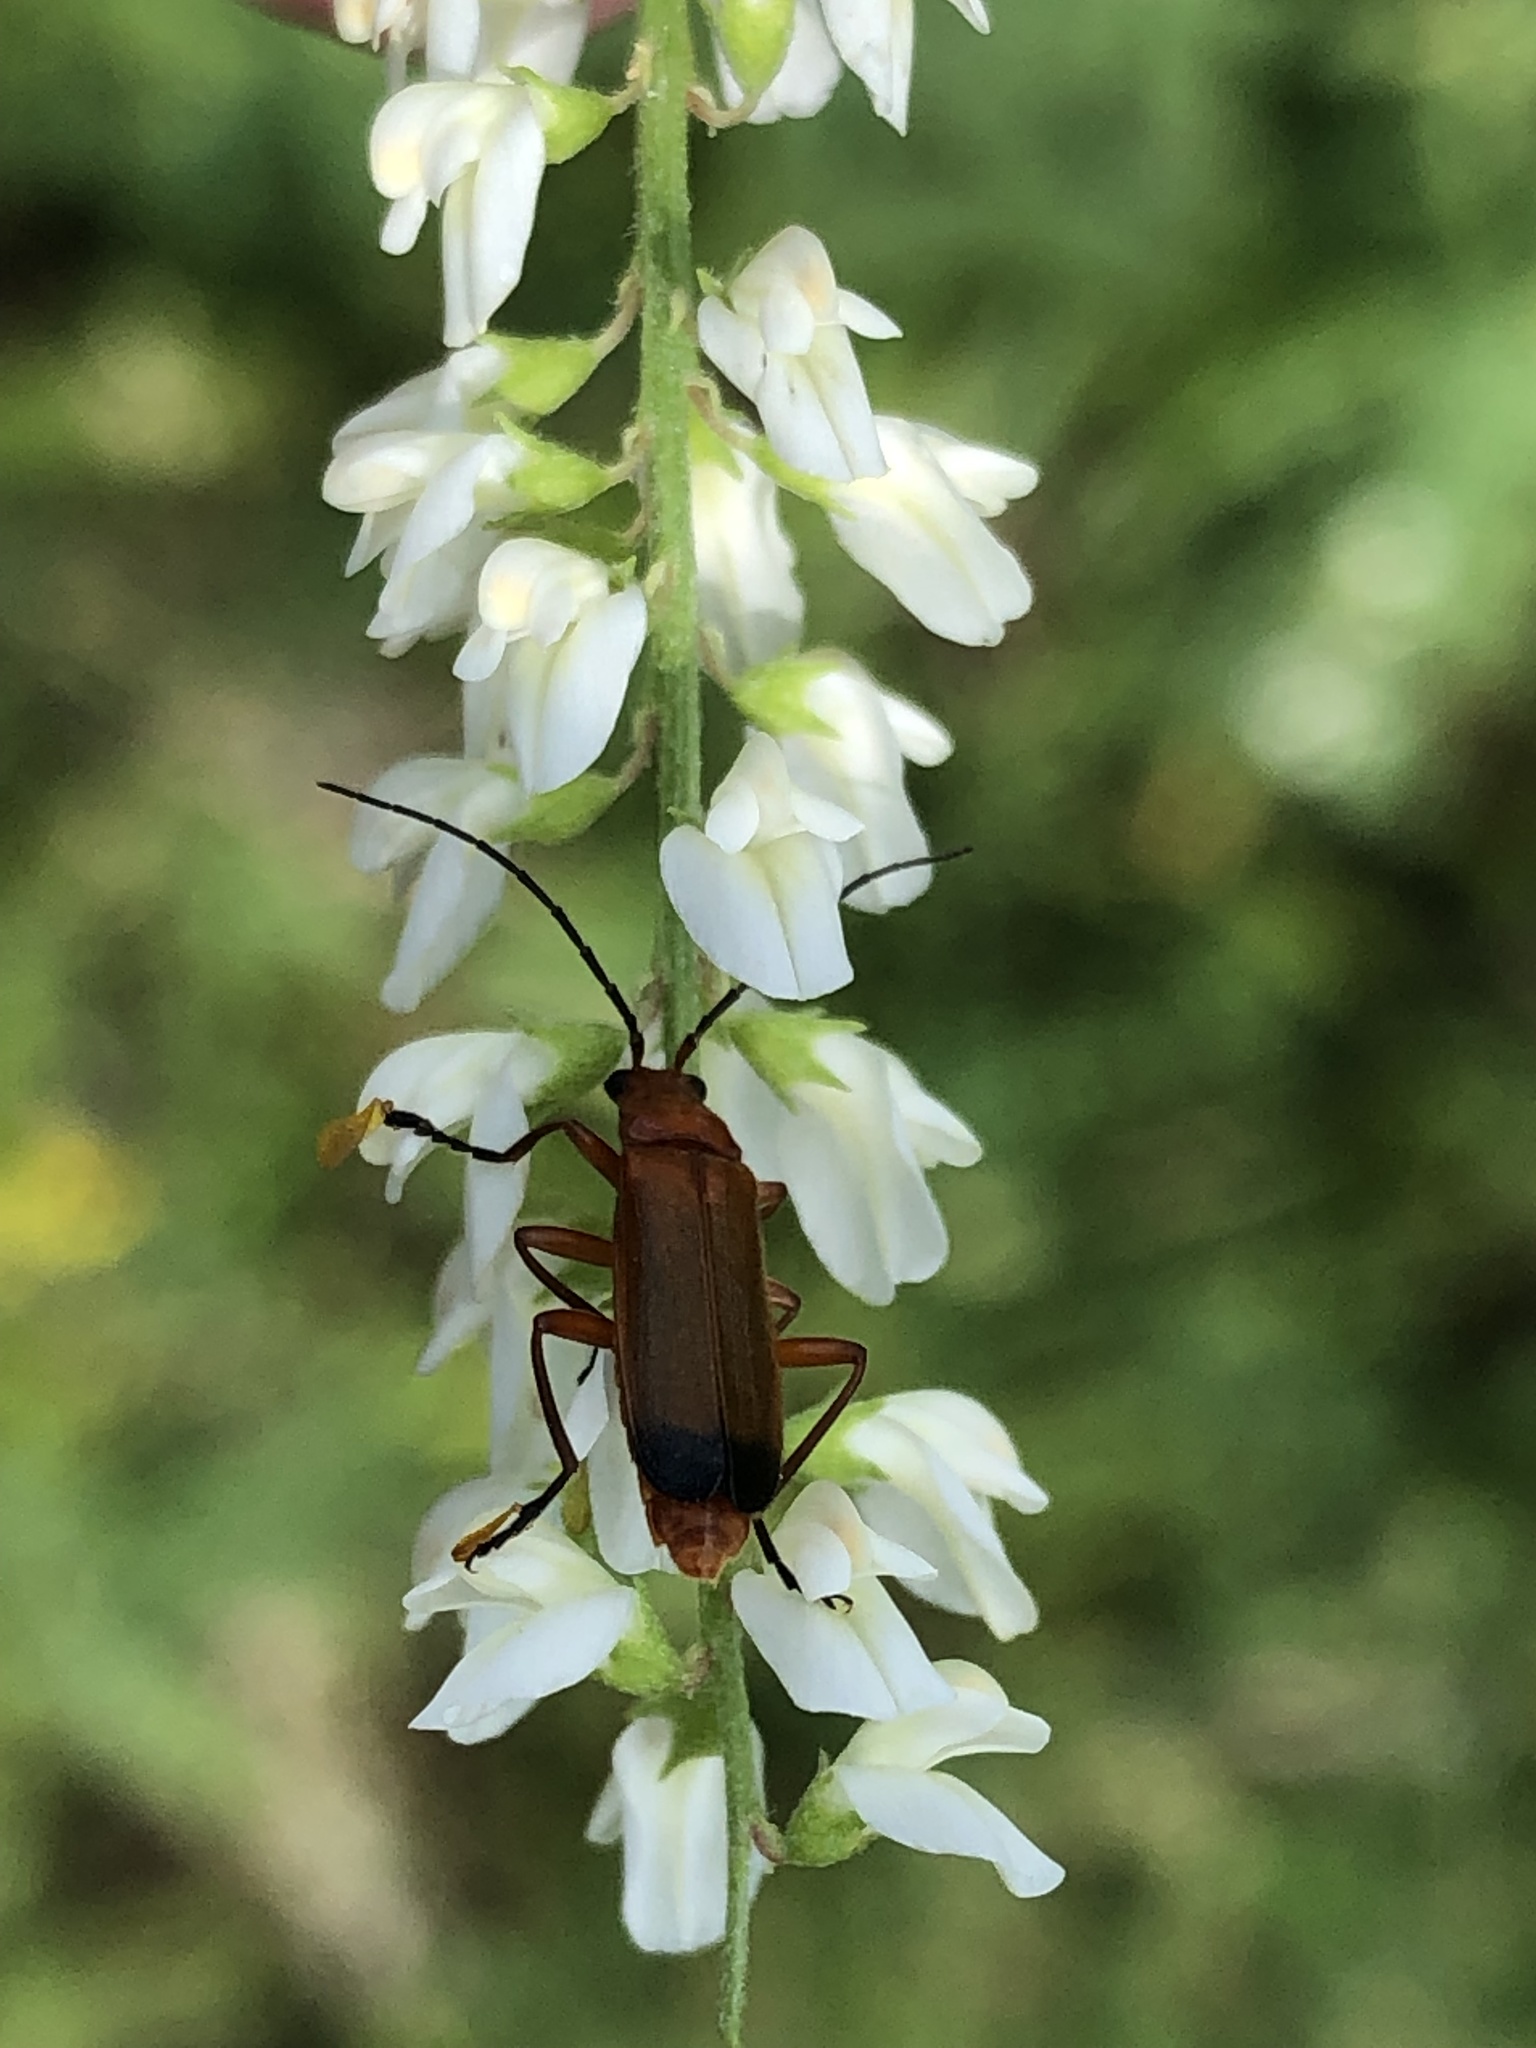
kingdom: Animalia
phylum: Arthropoda
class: Insecta
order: Coleoptera
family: Cantharidae
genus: Rhagonycha
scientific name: Rhagonycha fulva
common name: Common red soldier beetle
